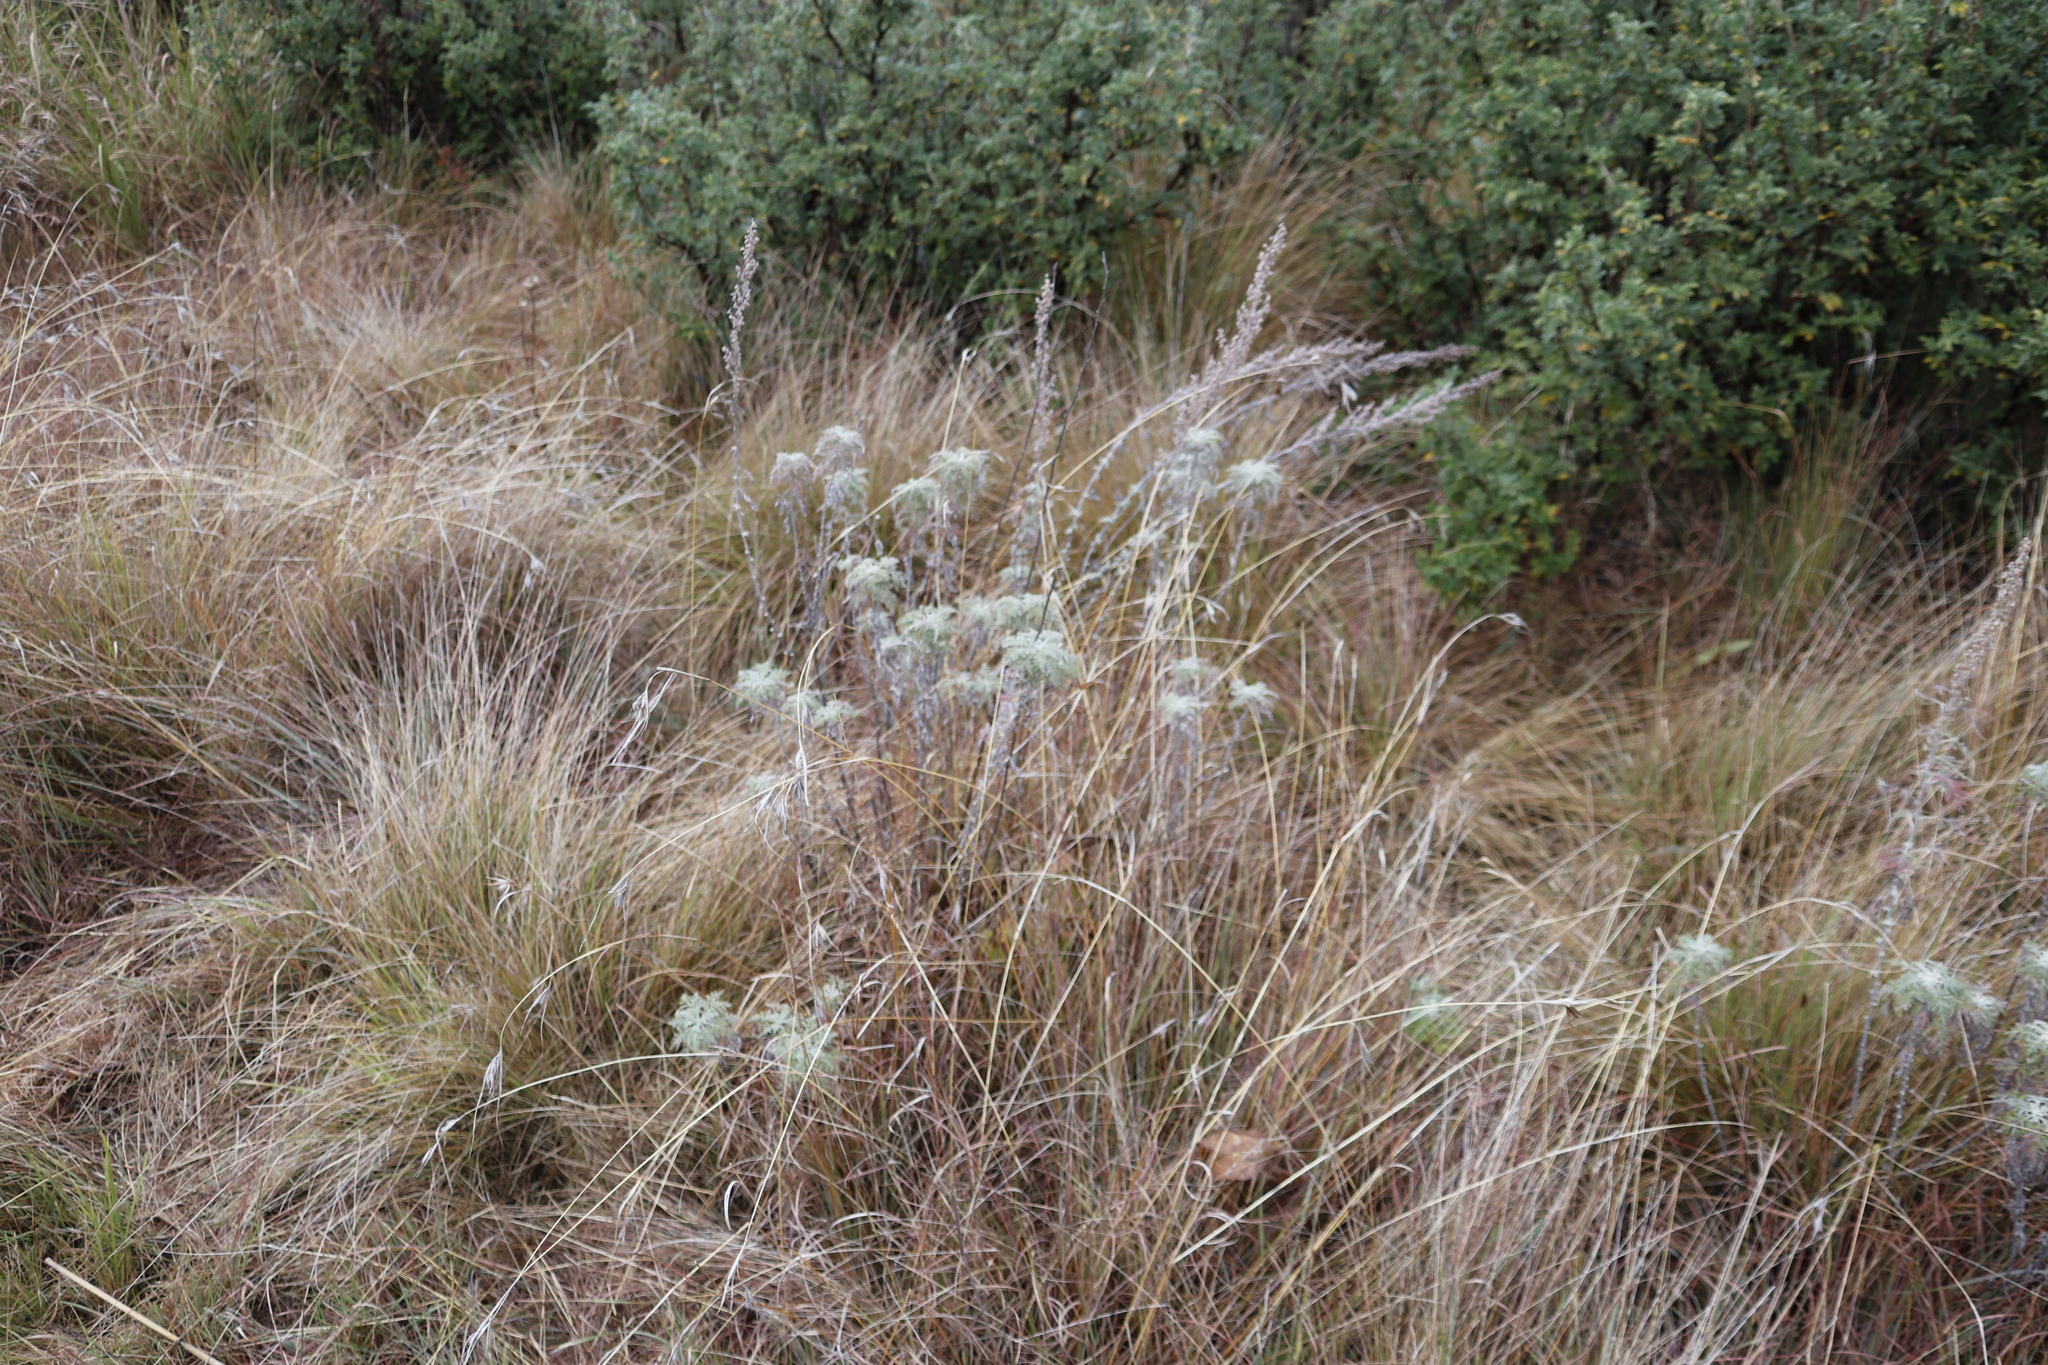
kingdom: Plantae
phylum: Tracheophyta
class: Magnoliopsida
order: Asterales
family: Asteraceae
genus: Artemisia
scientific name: Artemisia afra
